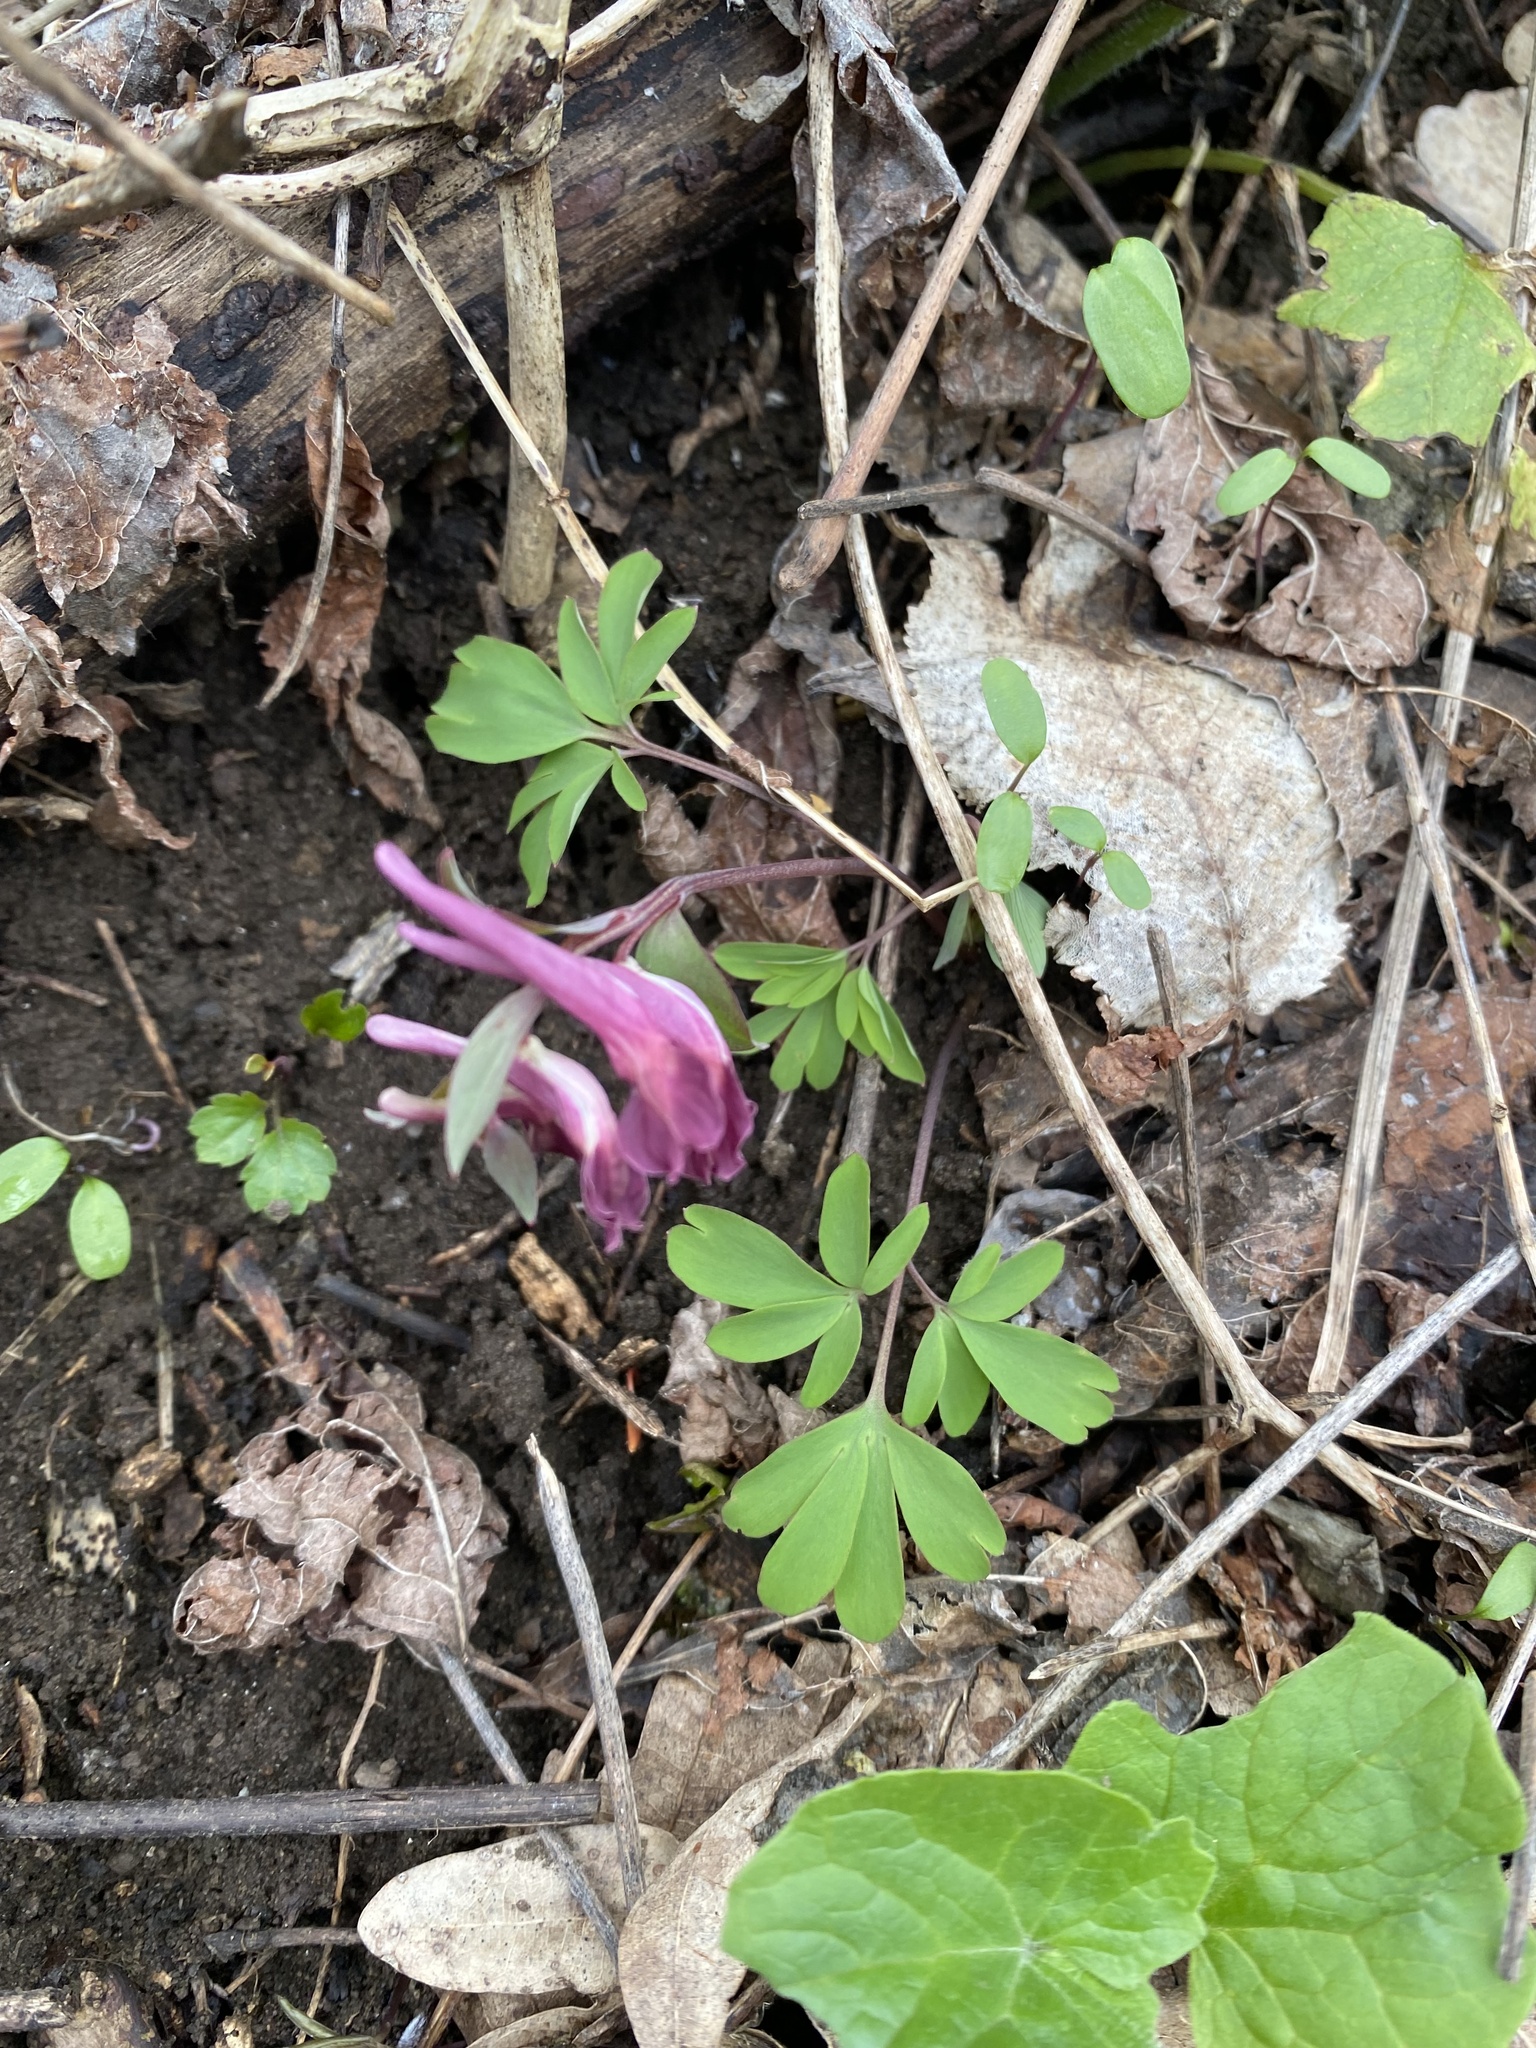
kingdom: Plantae
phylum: Tracheophyta
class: Magnoliopsida
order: Ranunculales
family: Papaveraceae
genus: Corydalis
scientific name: Corydalis caucasica
